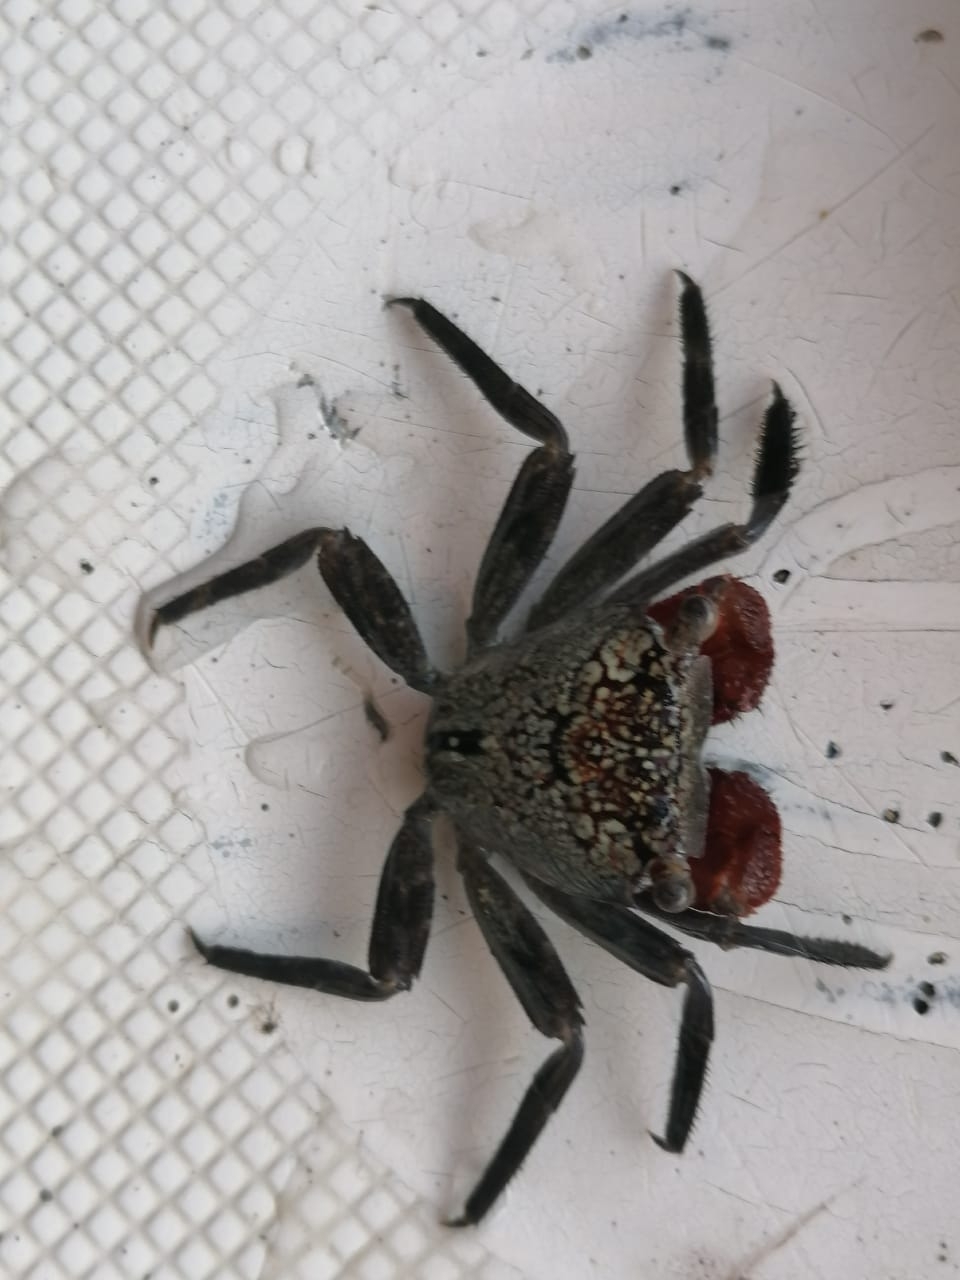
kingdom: Animalia
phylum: Arthropoda
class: Malacostraca
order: Decapoda
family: Sesarmidae
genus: Aratus
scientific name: Aratus pacificus
